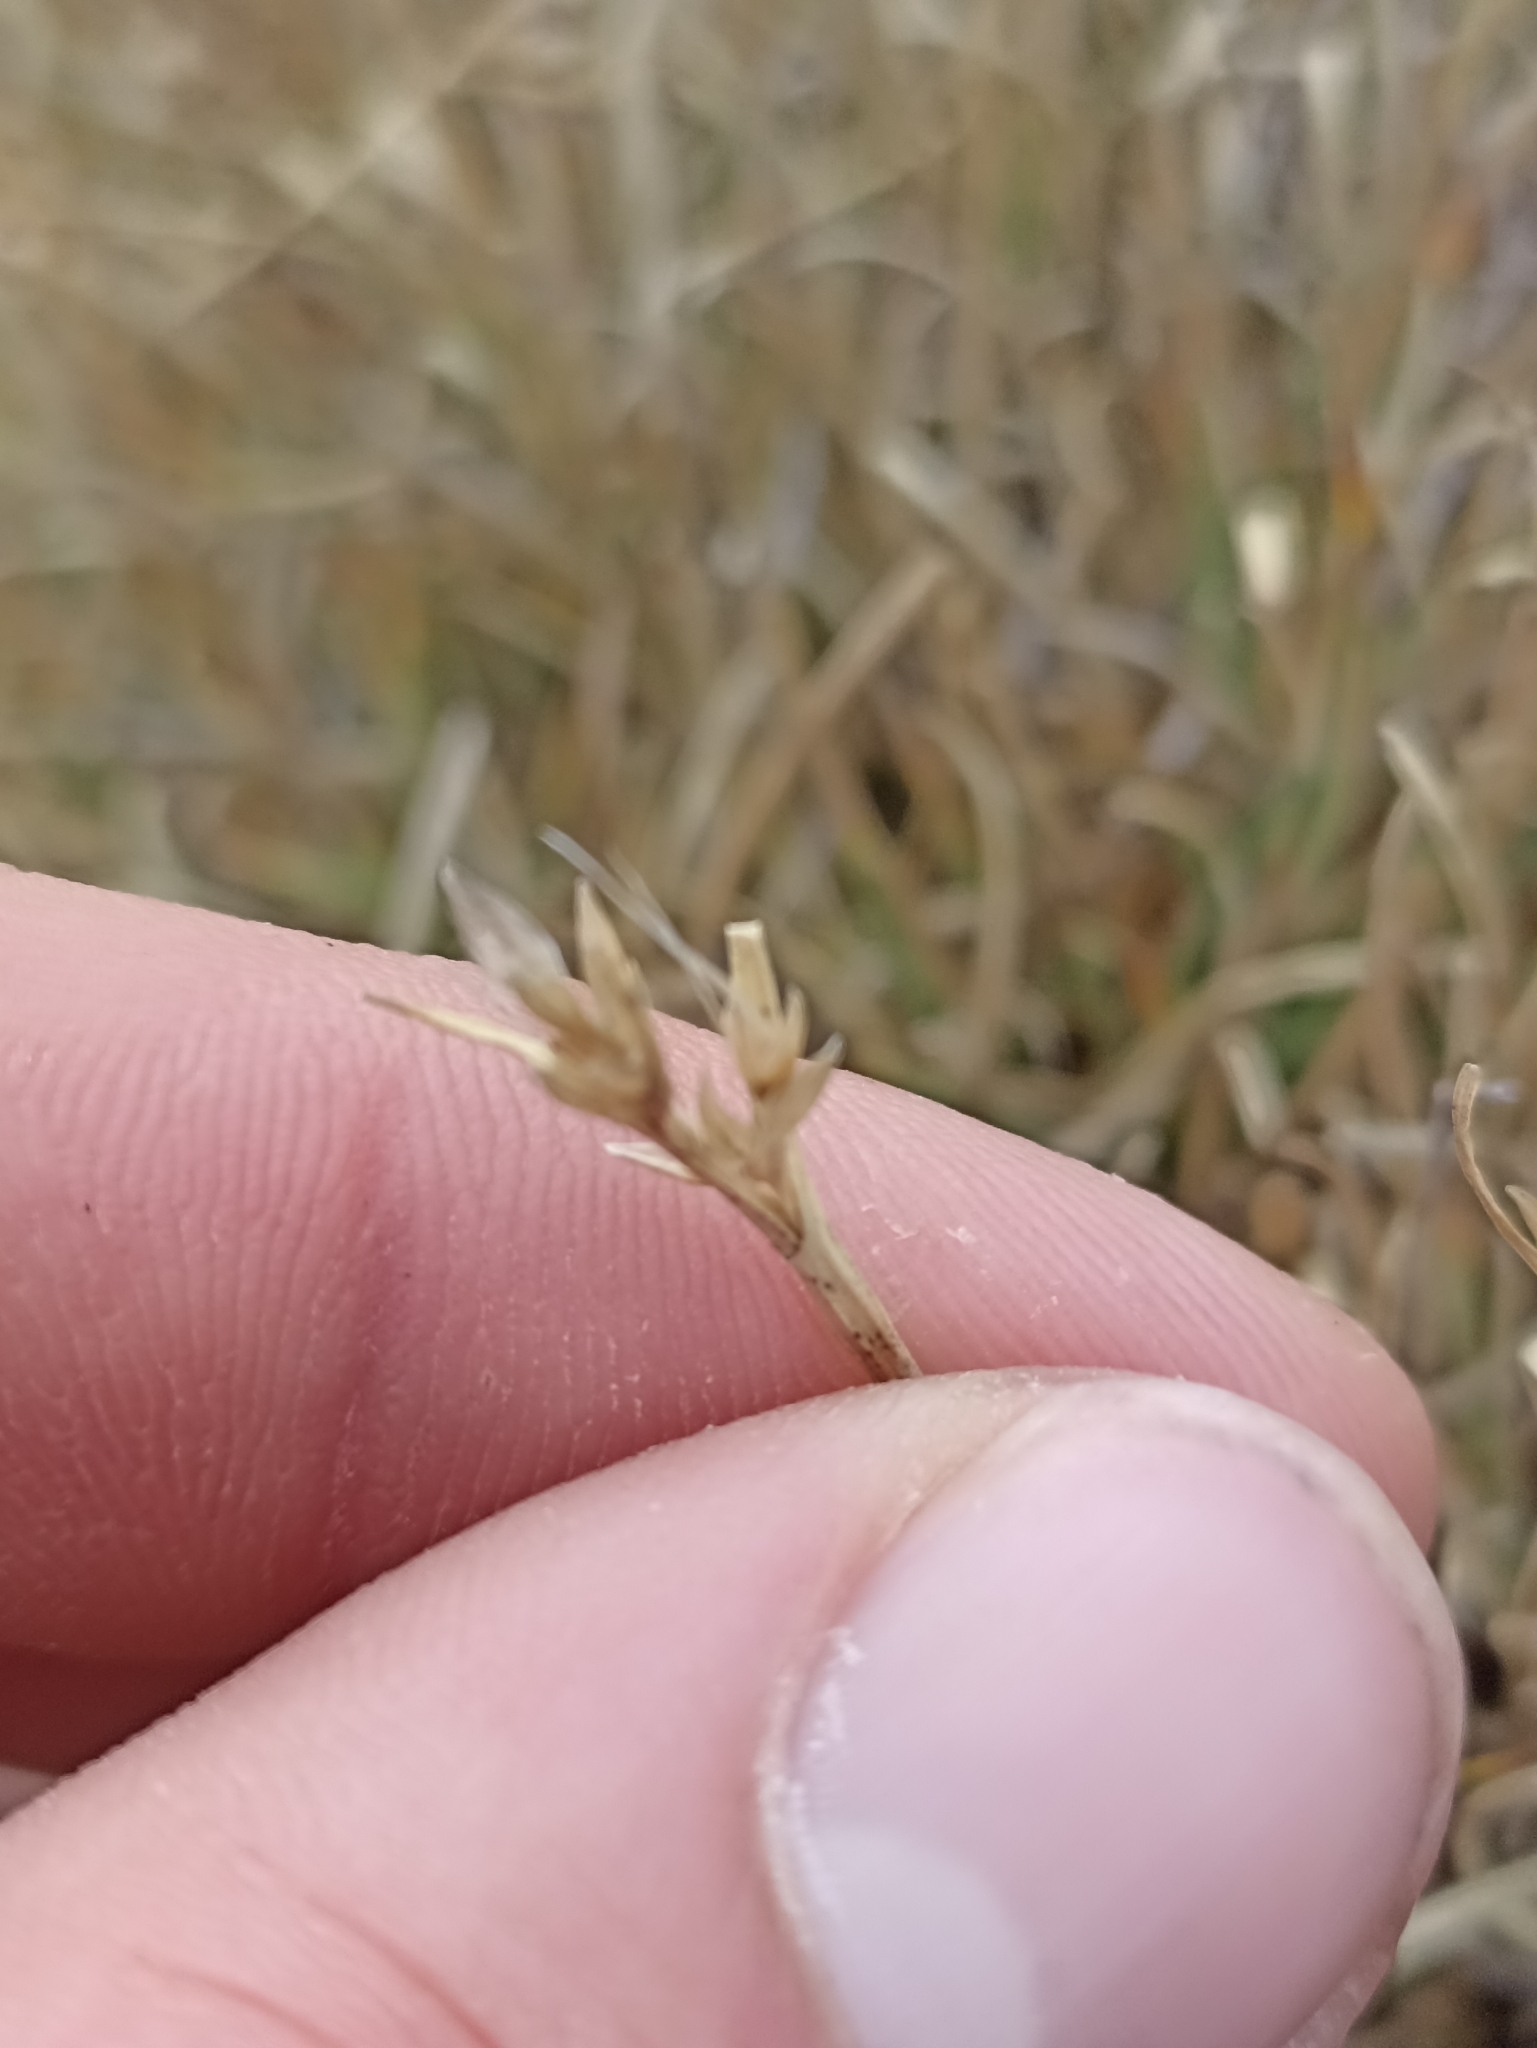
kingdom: Plantae
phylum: Tracheophyta
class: Liliopsida
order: Poales
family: Cyperaceae
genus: Carpha
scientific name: Carpha alpina
